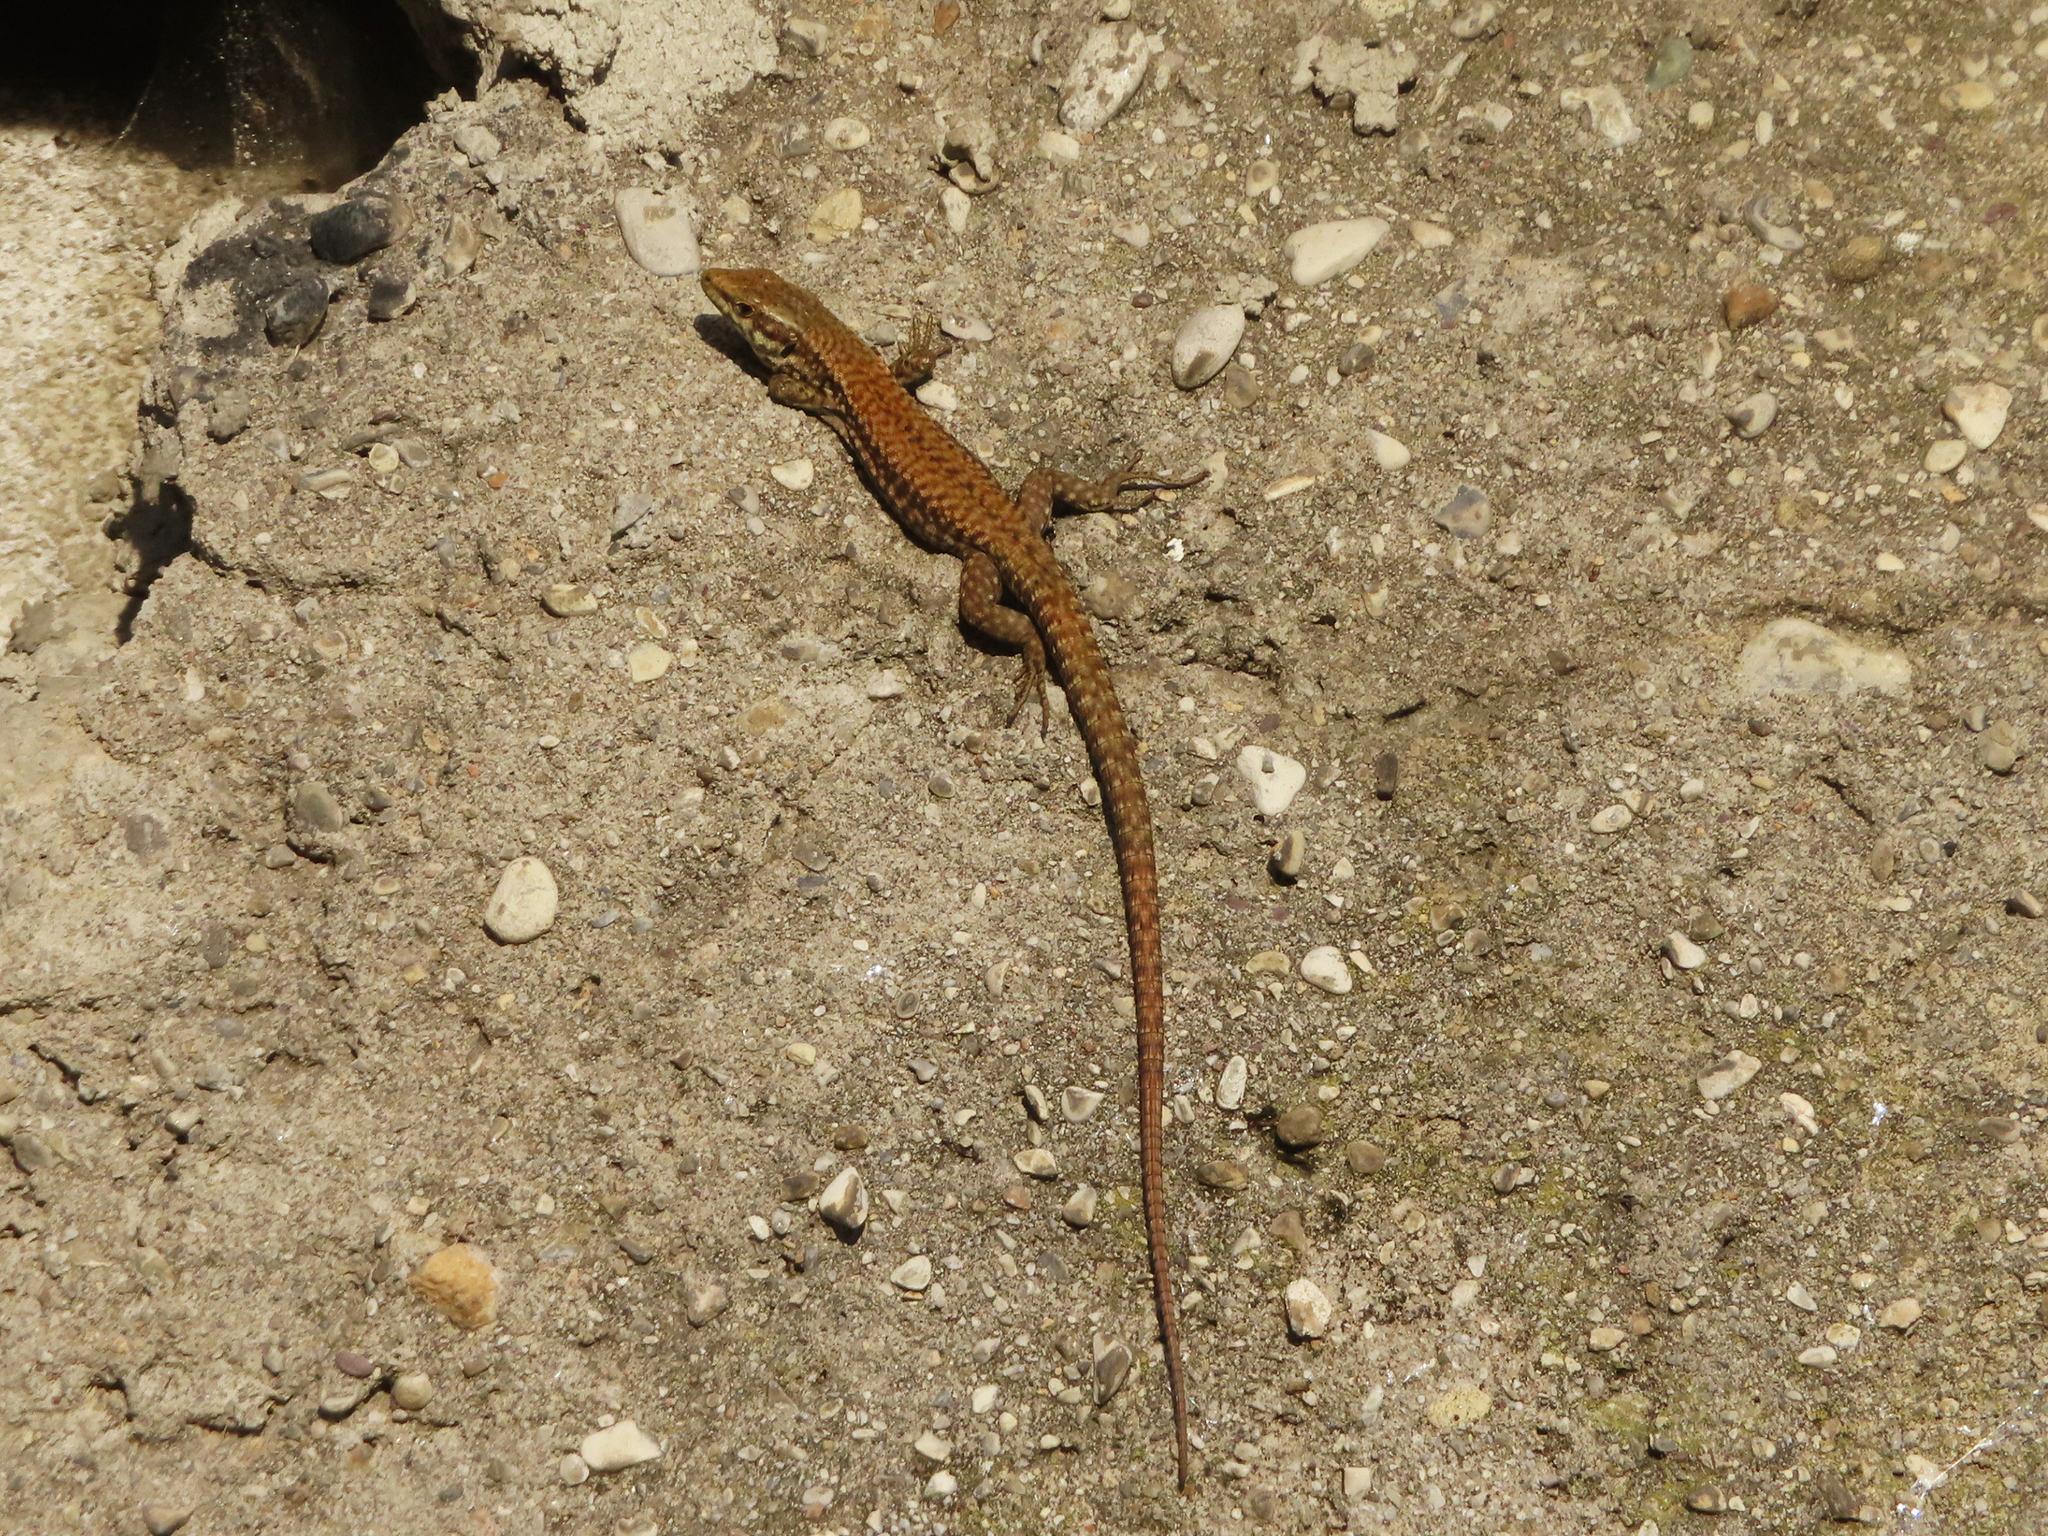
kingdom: Animalia
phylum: Chordata
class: Squamata
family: Lacertidae
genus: Podarcis
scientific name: Podarcis muralis
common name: Common wall lizard
